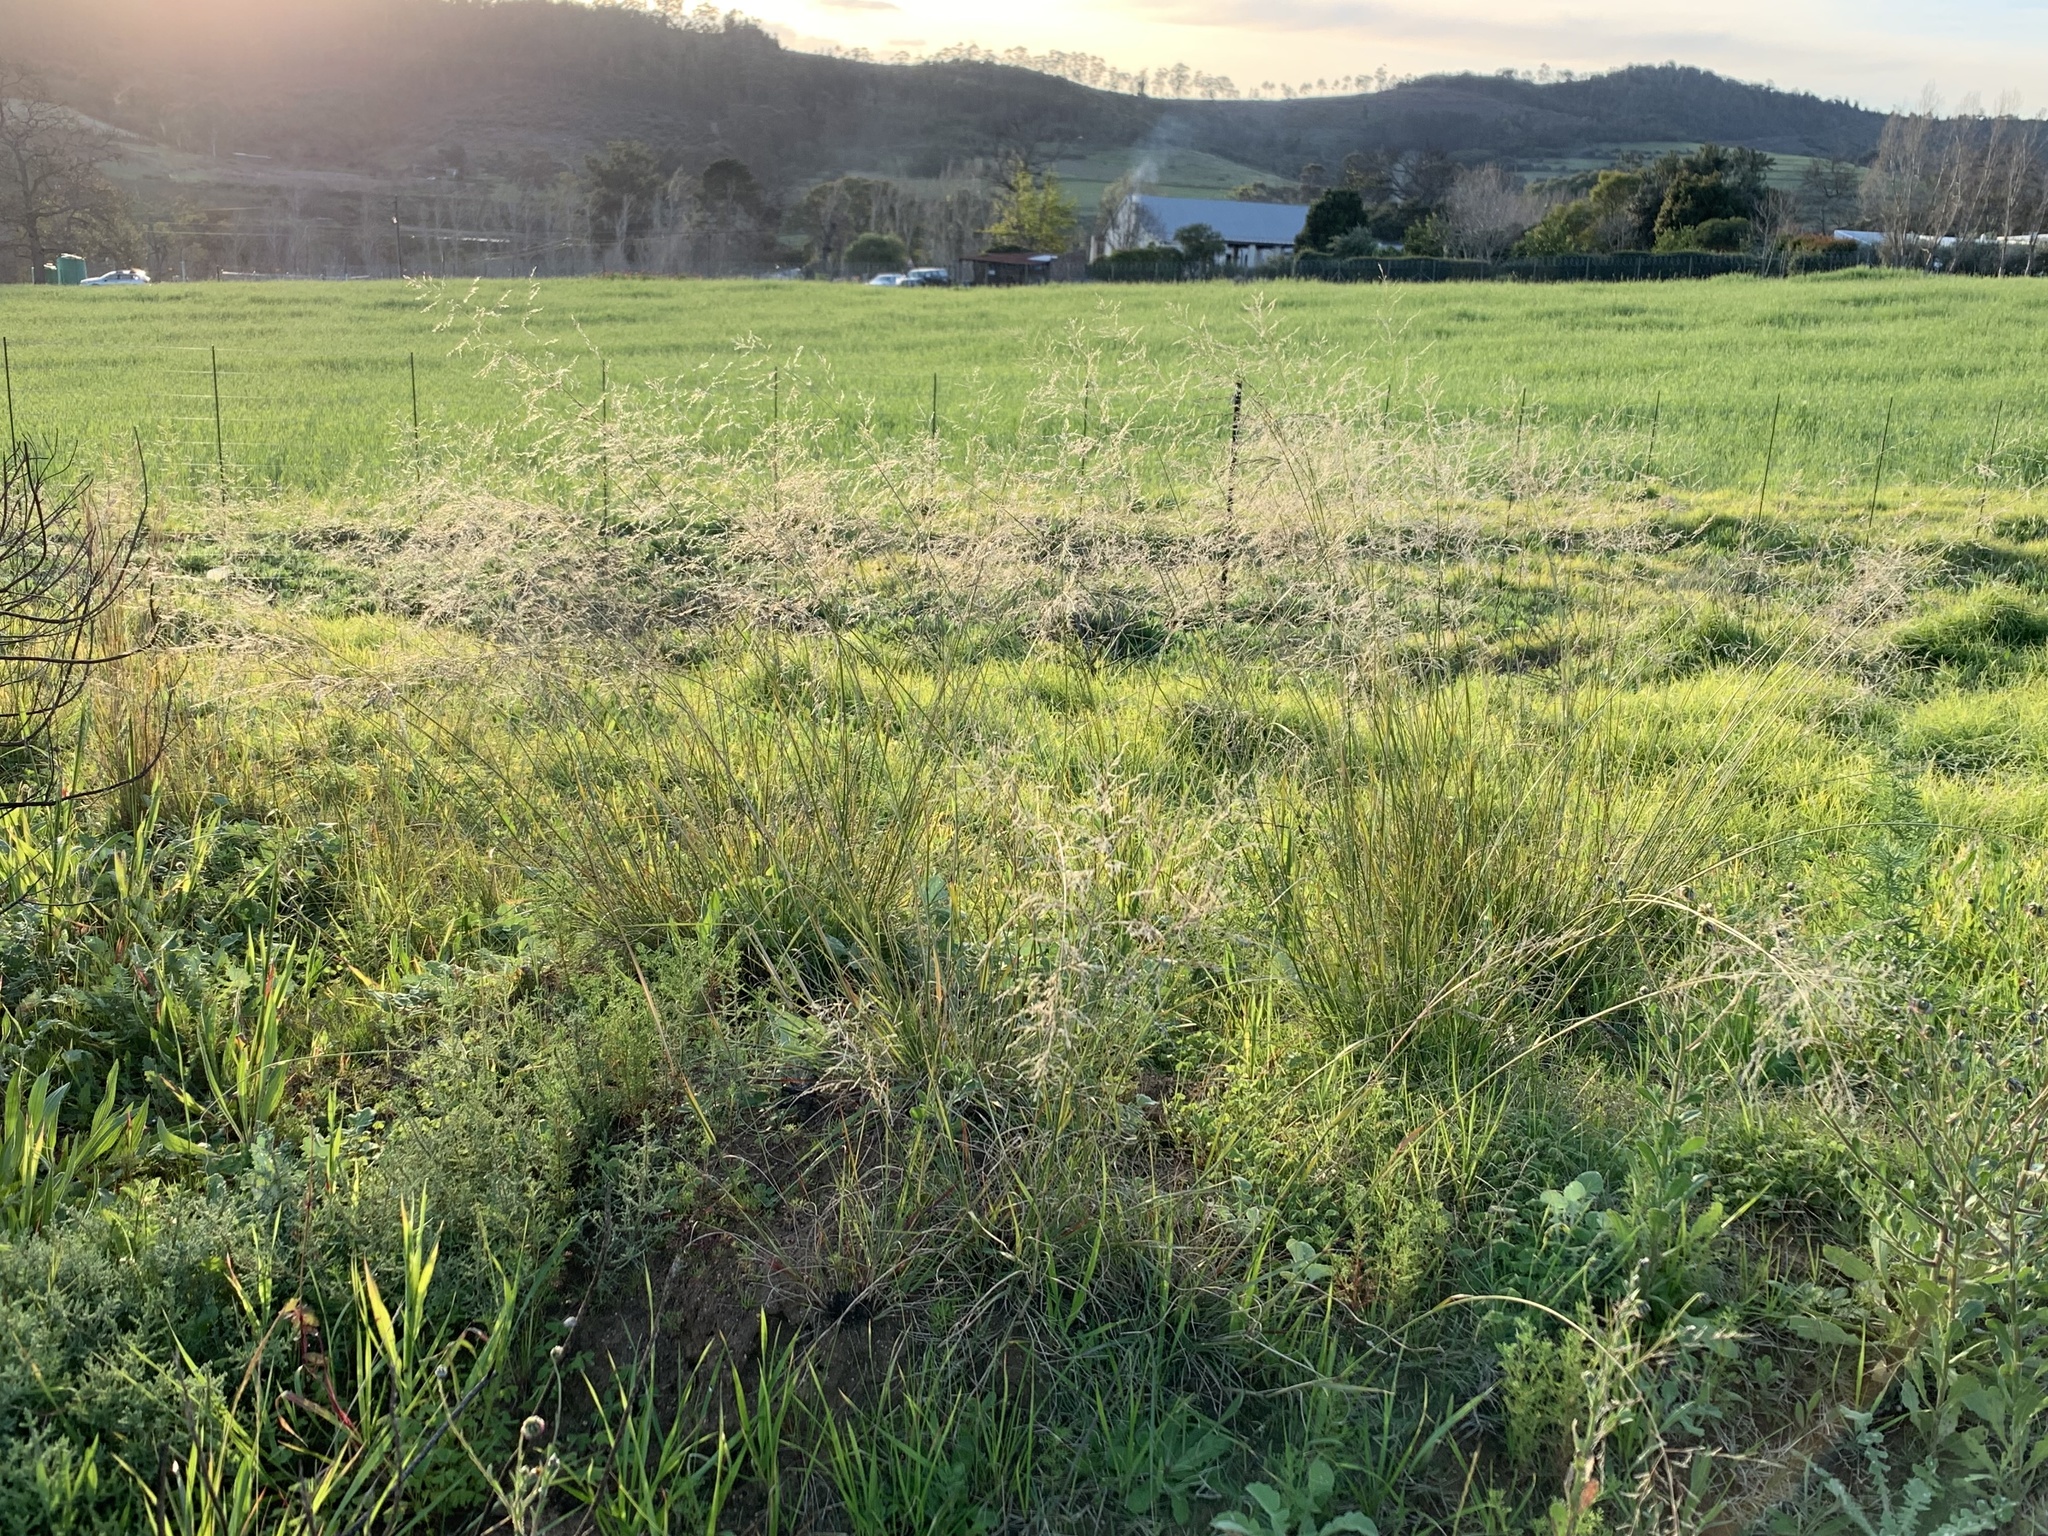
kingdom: Plantae
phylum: Tracheophyta
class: Liliopsida
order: Poales
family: Poaceae
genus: Eragrostis
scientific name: Eragrostis curvula
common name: African love-grass
